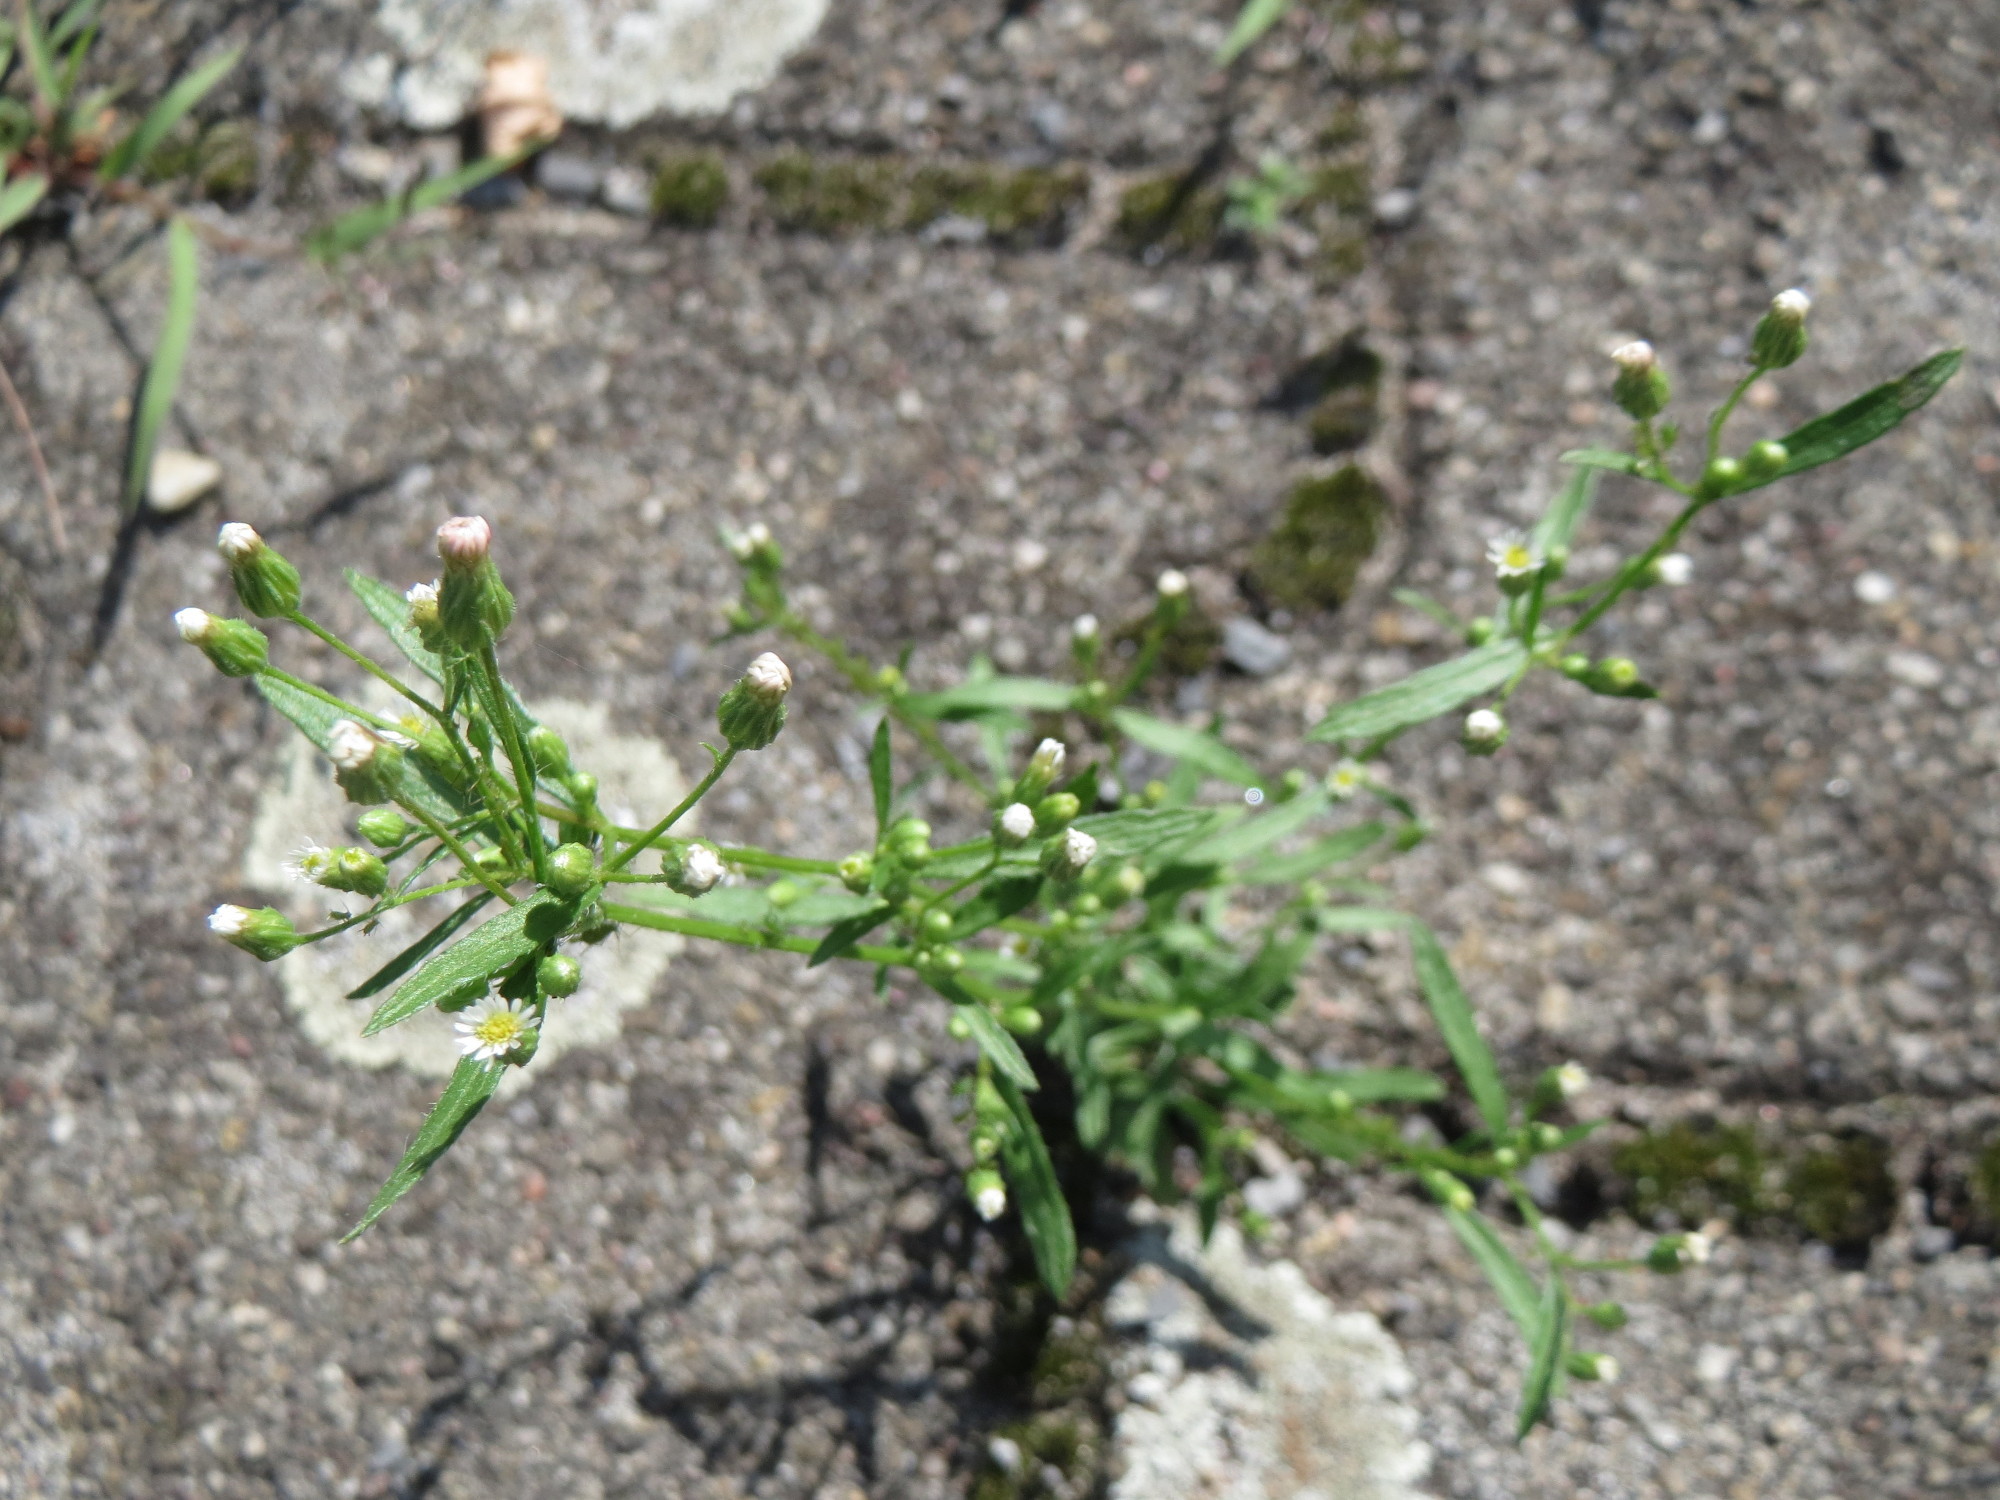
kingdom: Plantae
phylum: Tracheophyta
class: Magnoliopsida
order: Asterales
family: Asteraceae
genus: Erigeron
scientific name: Erigeron canadensis
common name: Canadian fleabane
